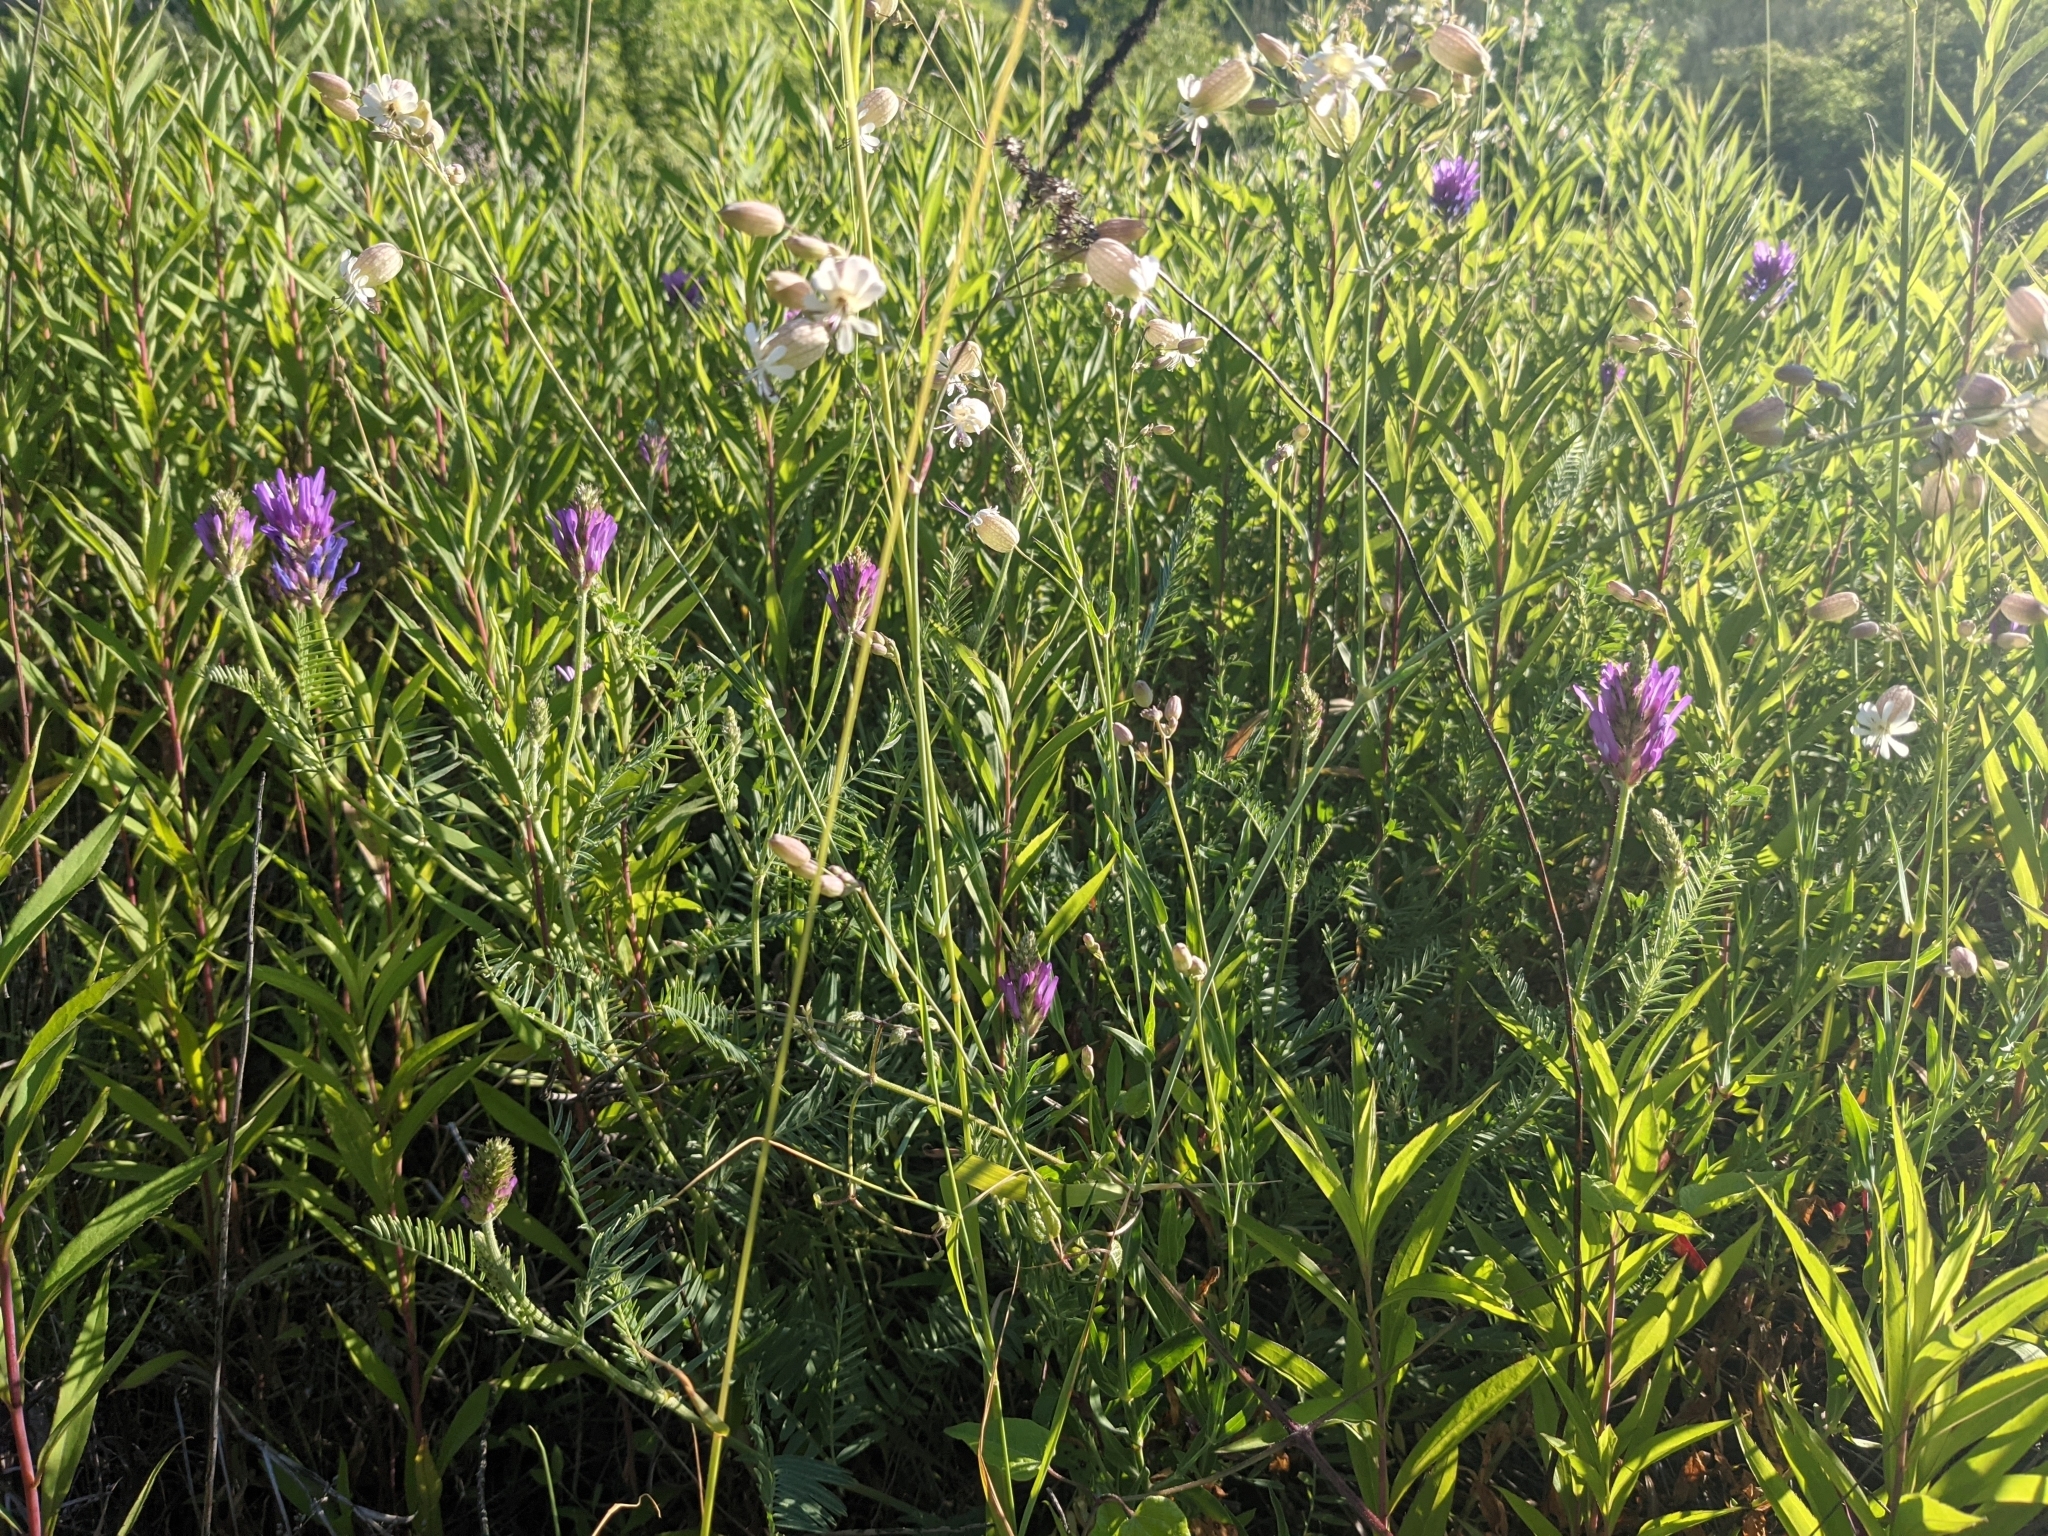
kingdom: Plantae
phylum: Tracheophyta
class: Magnoliopsida
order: Fabales
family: Fabaceae
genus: Astragalus
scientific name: Astragalus onobrychis
